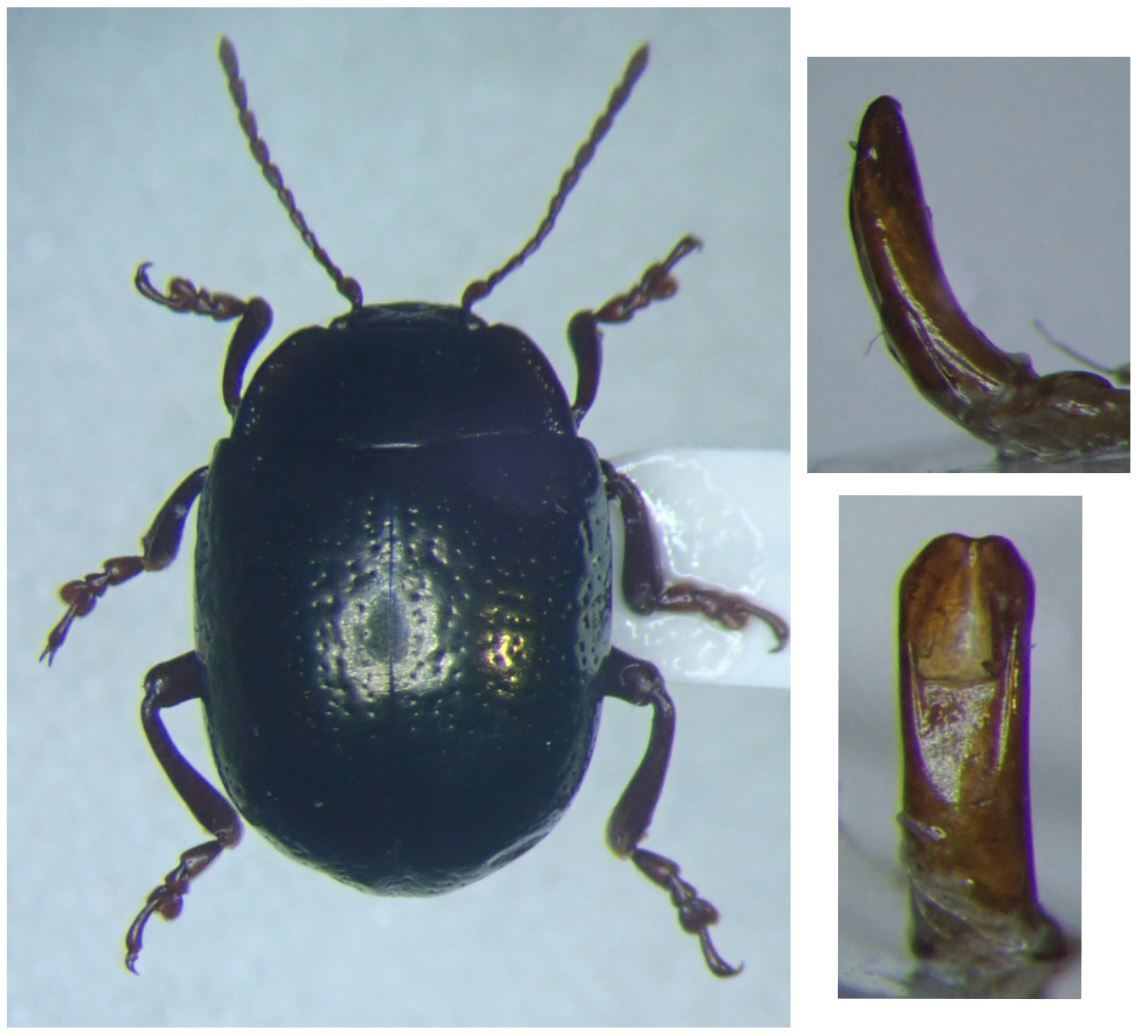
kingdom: Animalia
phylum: Arthropoda
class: Insecta
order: Coleoptera
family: Chrysomelidae
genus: Chrysolina
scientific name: Chrysolina bankii
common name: Leaf beetle
